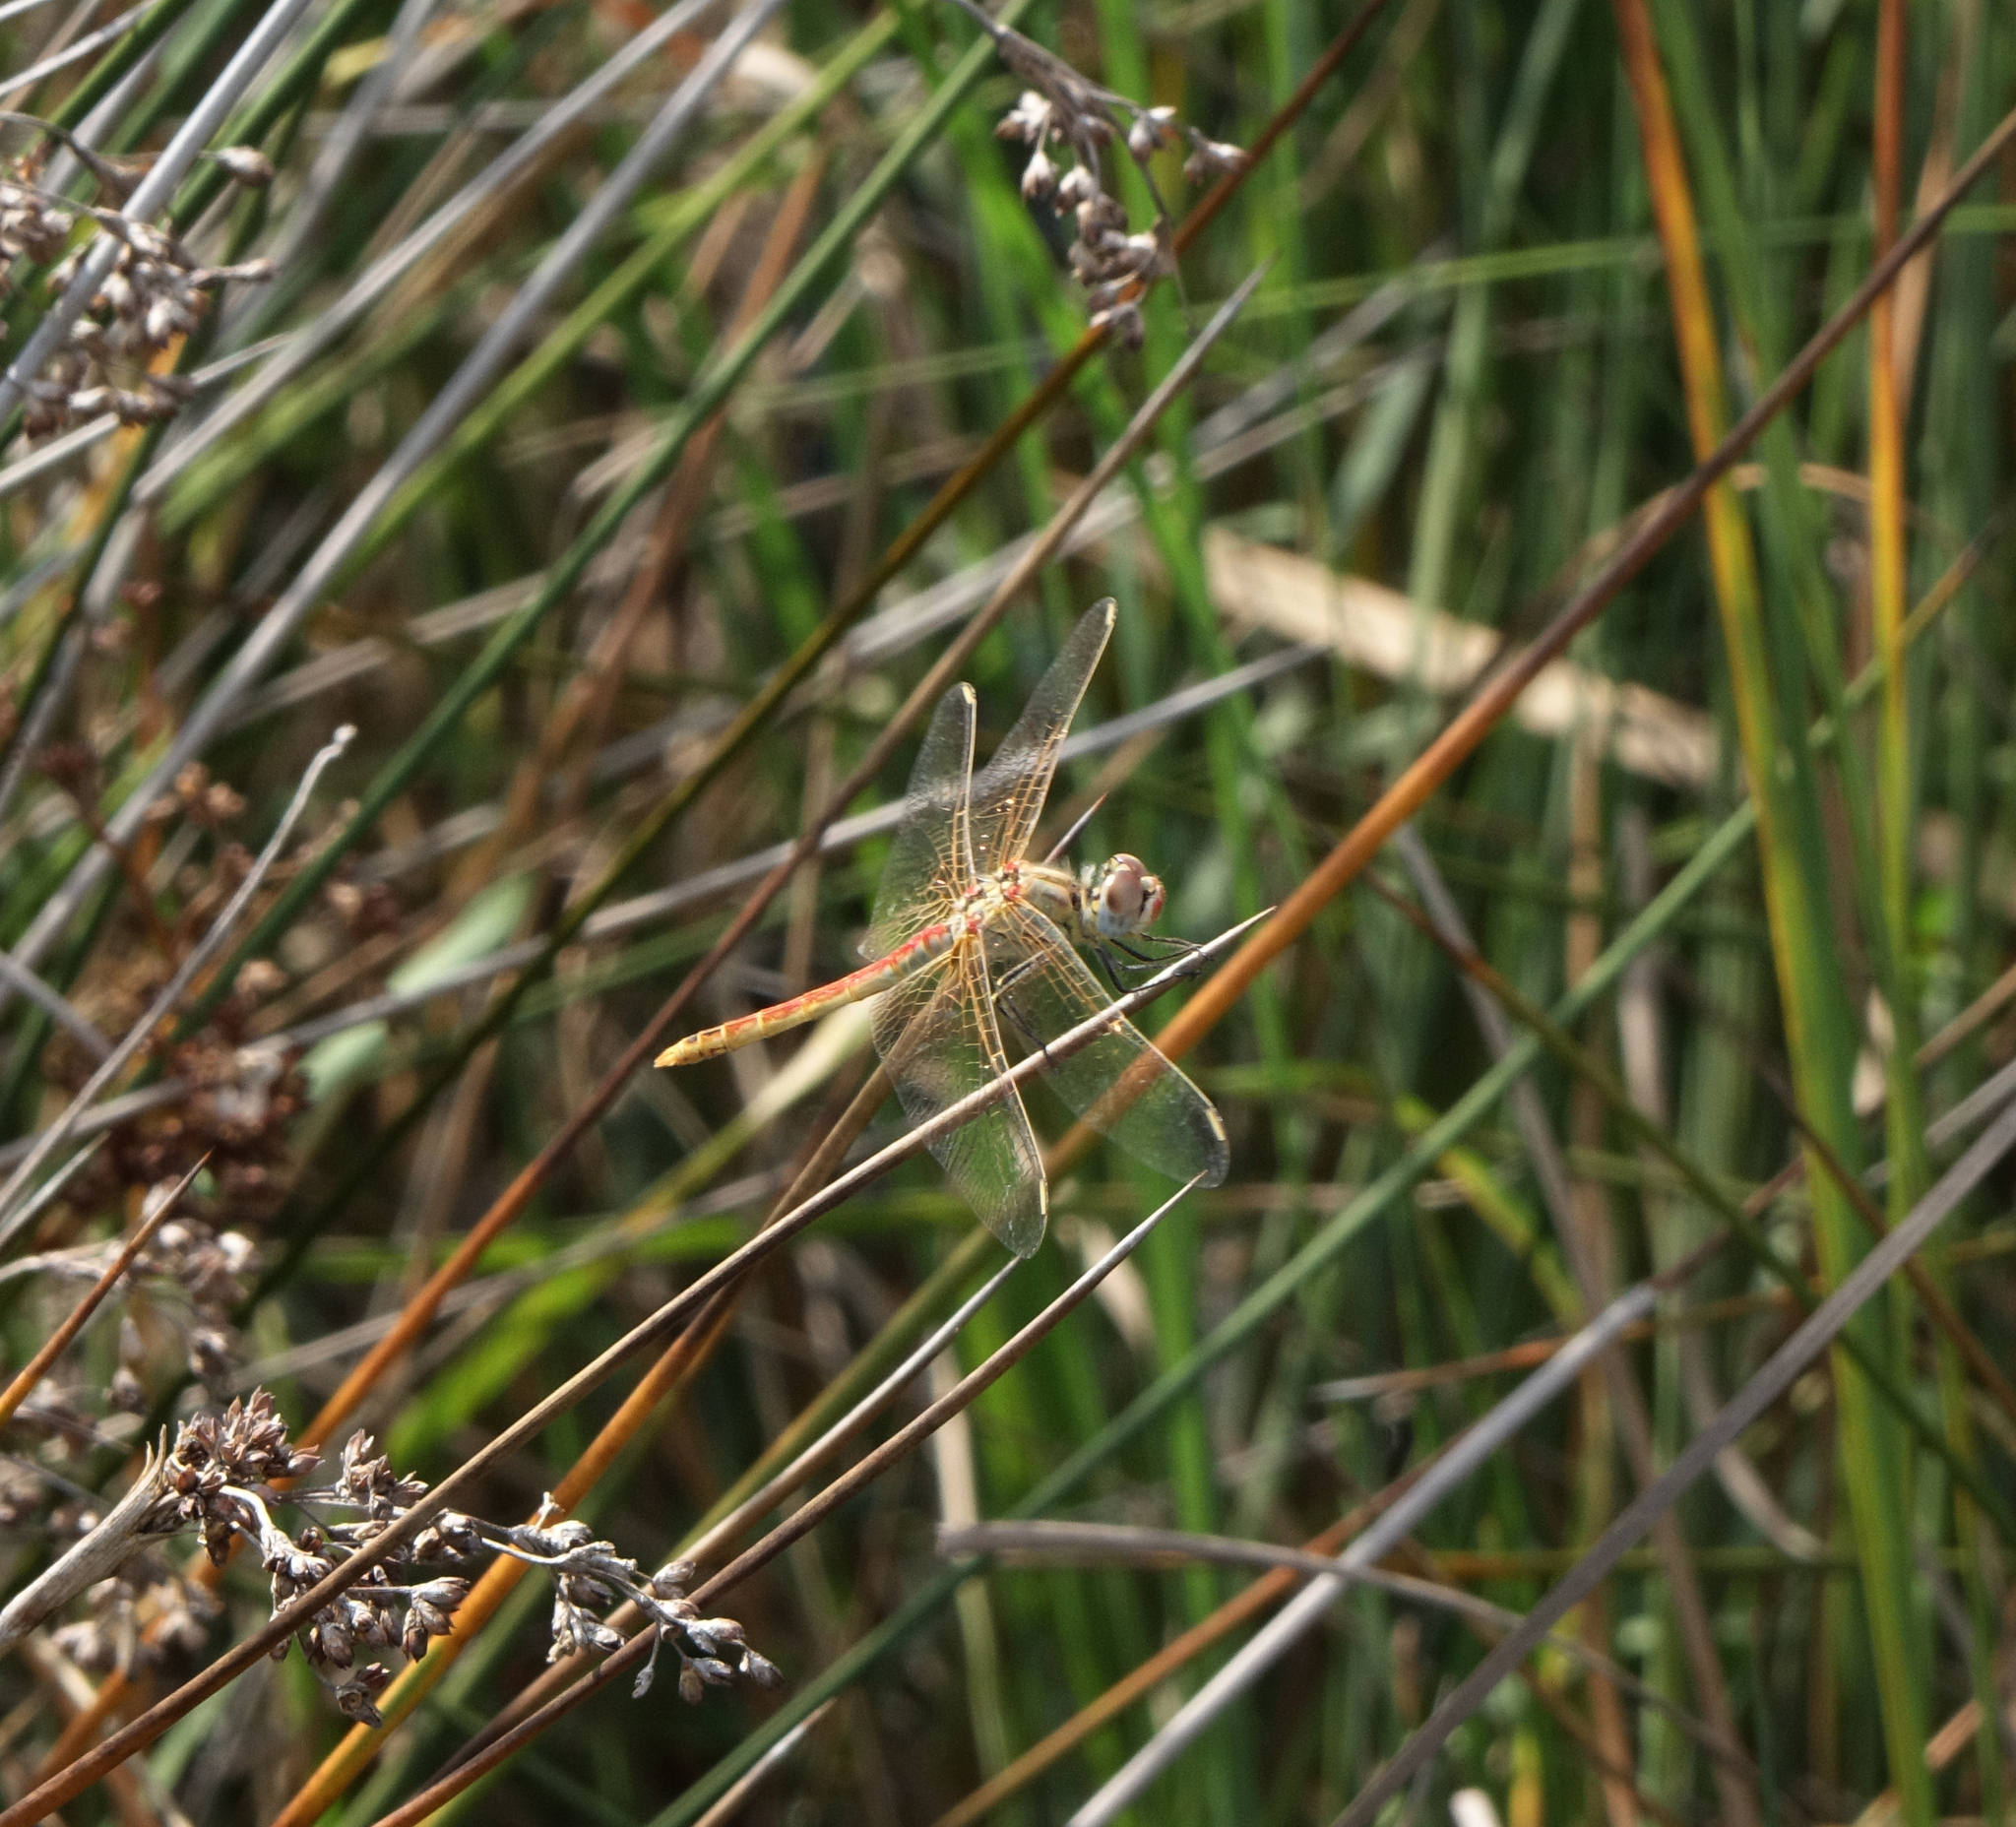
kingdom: Animalia
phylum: Arthropoda
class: Insecta
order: Odonata
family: Libellulidae
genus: Sympetrum
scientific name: Sympetrum fonscolombii
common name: Red-veined darter
